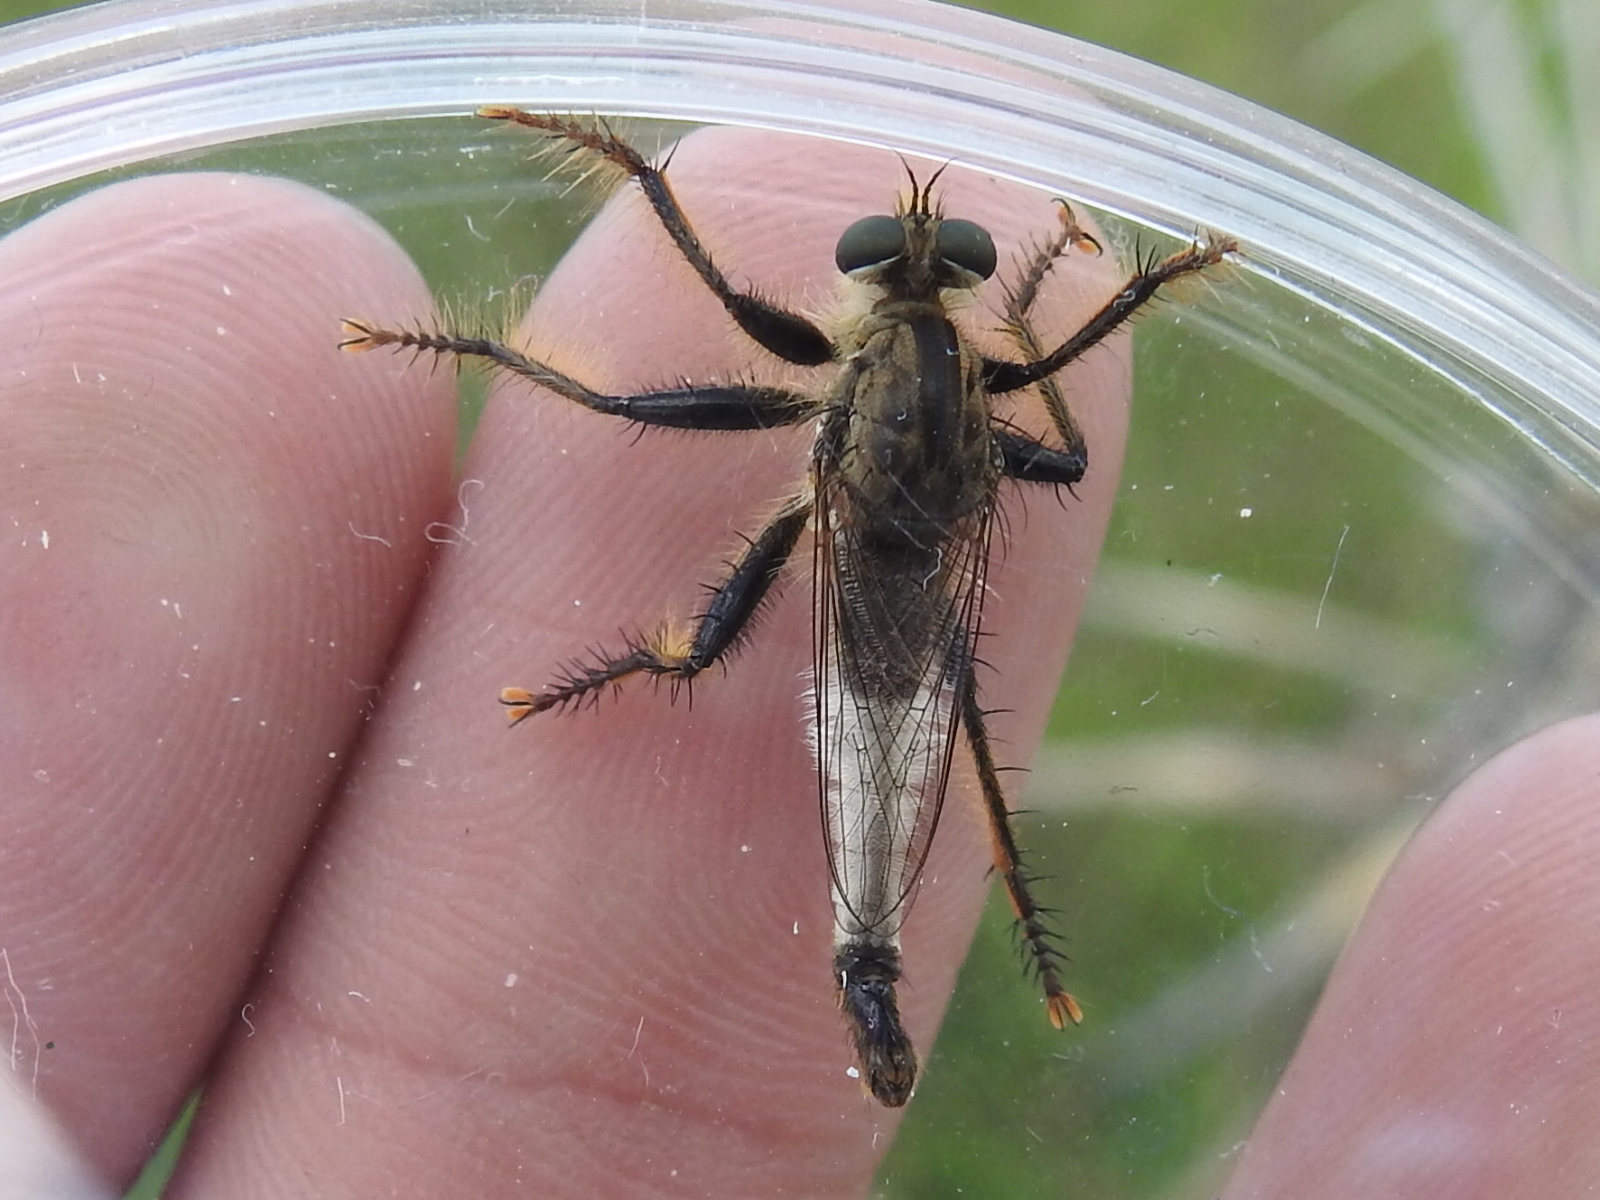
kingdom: Animalia
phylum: Arthropoda
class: Insecta
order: Diptera
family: Asilidae
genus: Efferia
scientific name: Efferia rapax
